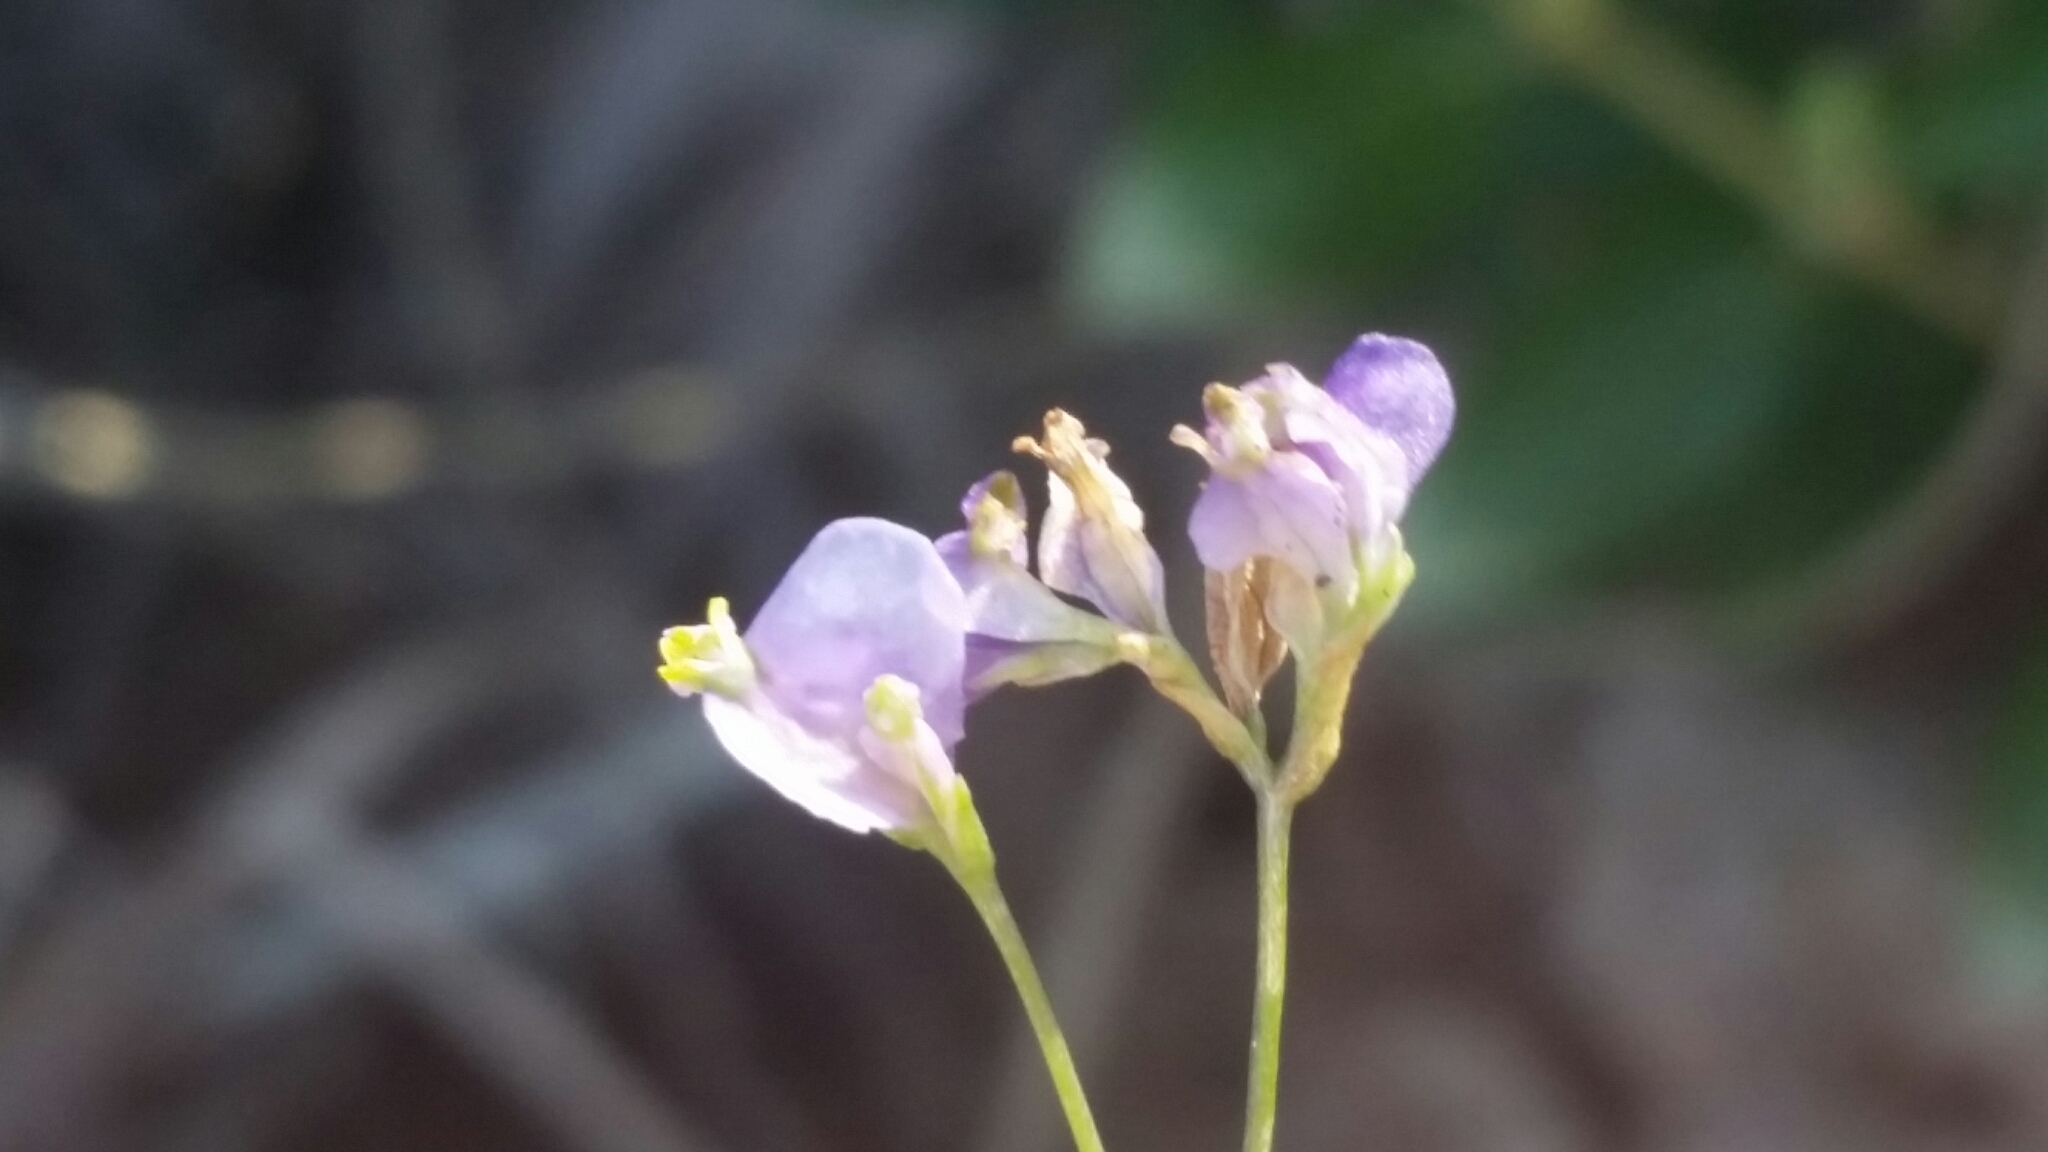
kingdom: Plantae
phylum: Tracheophyta
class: Liliopsida
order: Dioscoreales
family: Burmanniaceae
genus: Burmannia
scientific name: Burmannia biflora
